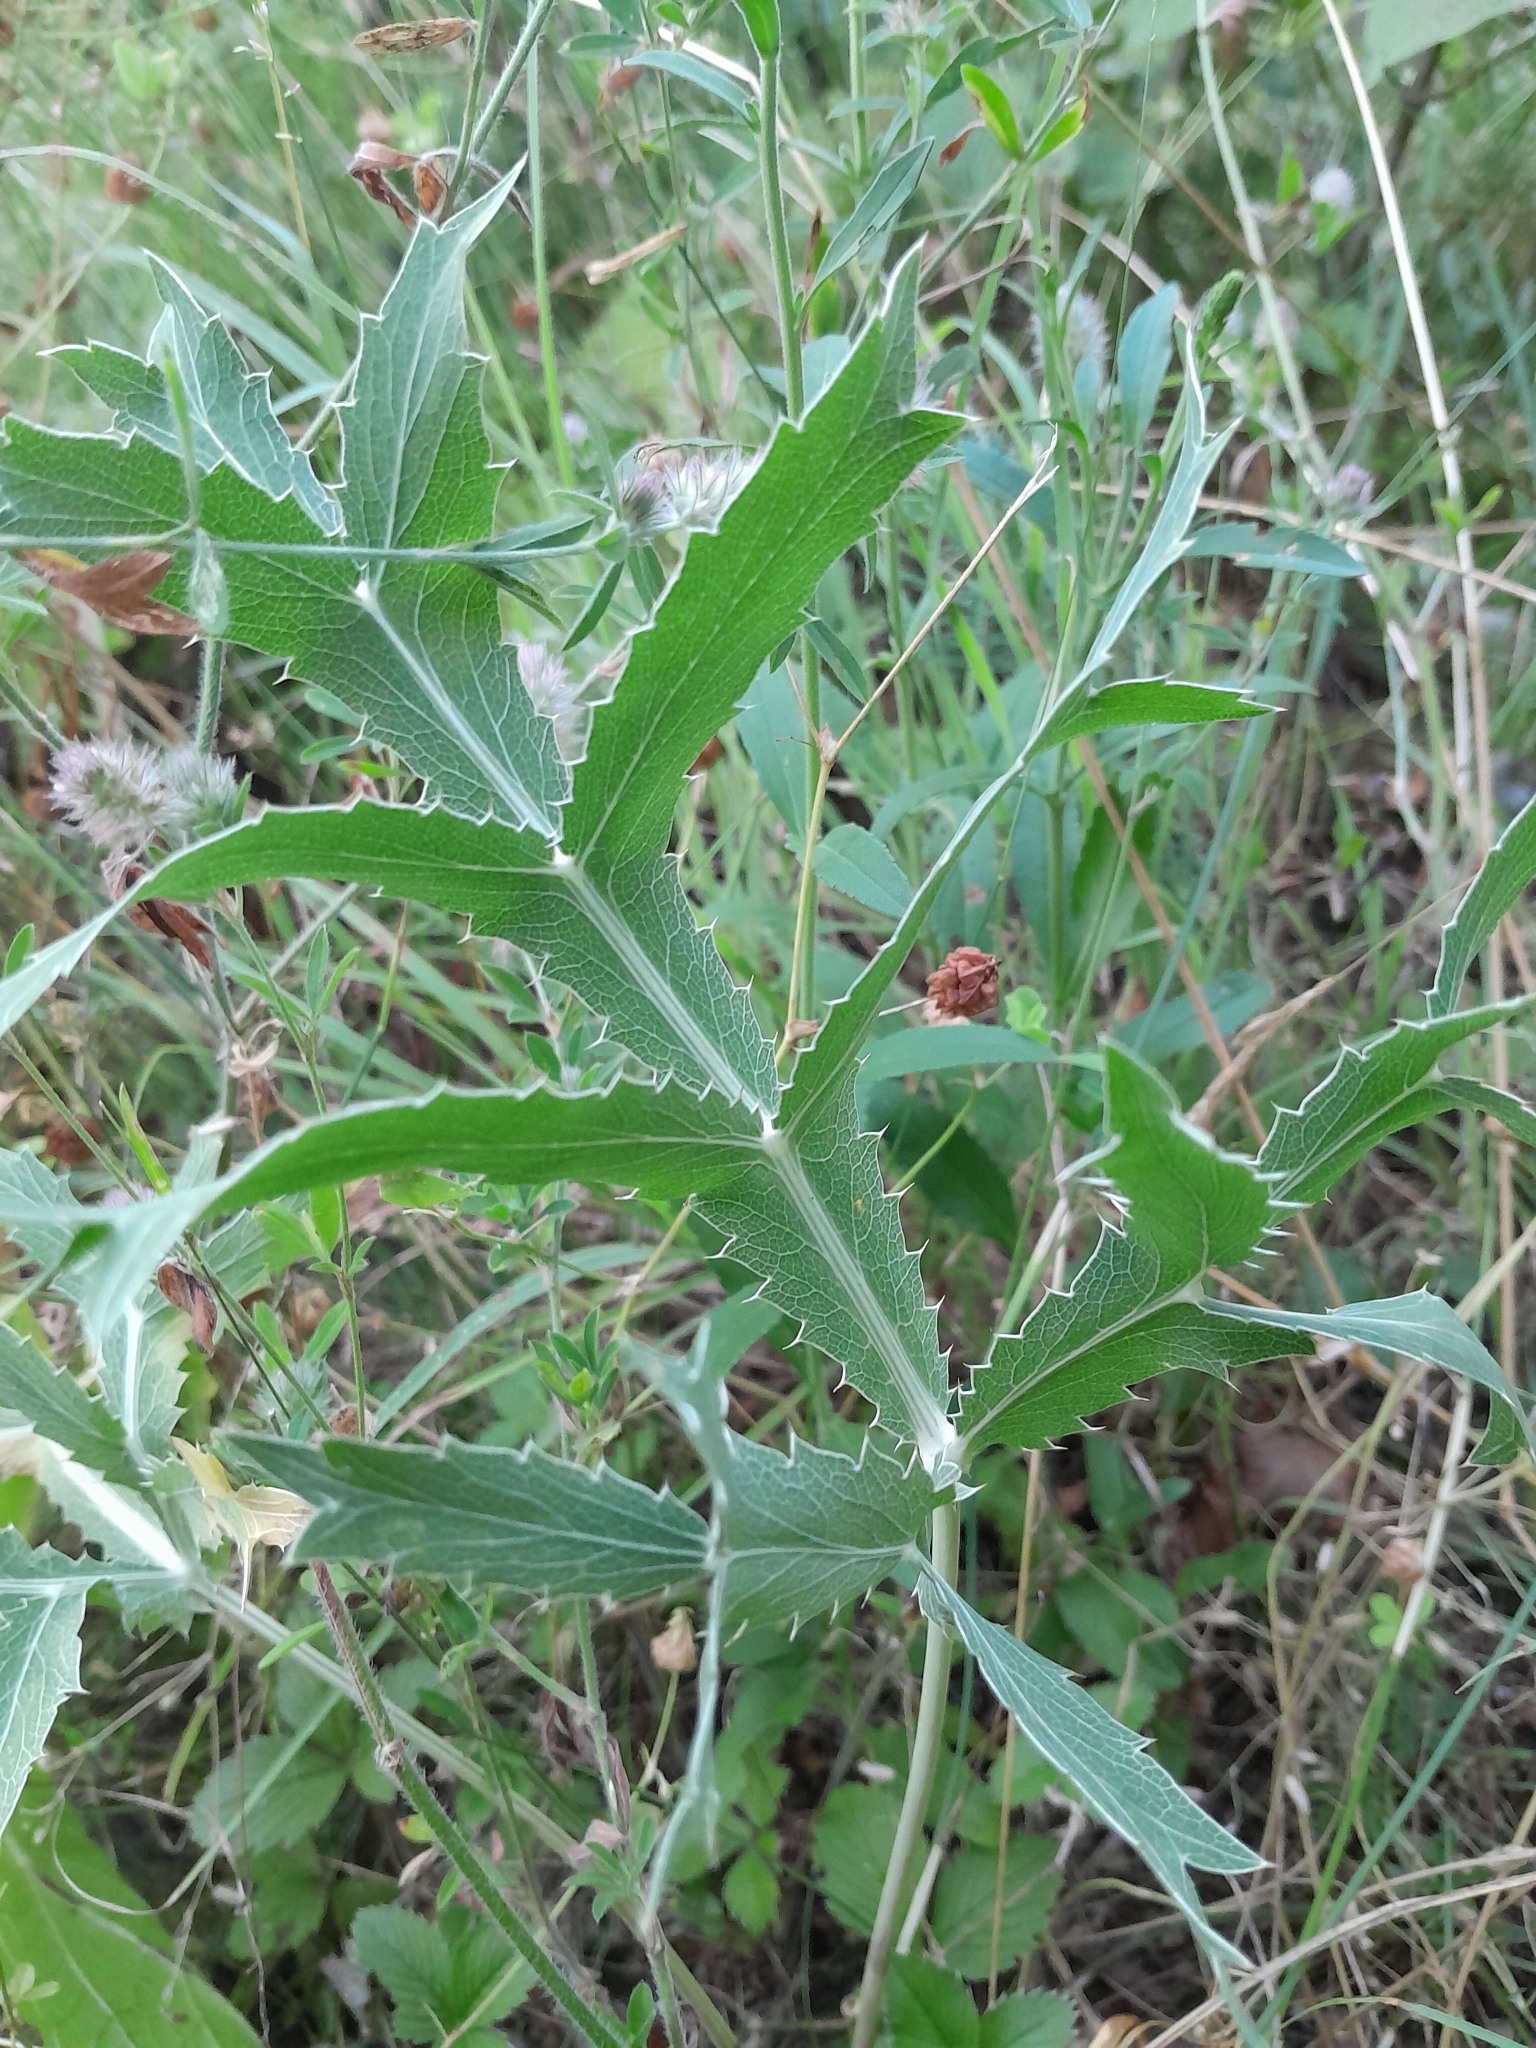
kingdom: Plantae
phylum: Tracheophyta
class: Magnoliopsida
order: Apiales
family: Apiaceae
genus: Eryngium
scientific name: Eryngium campestre
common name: Field eryngo
